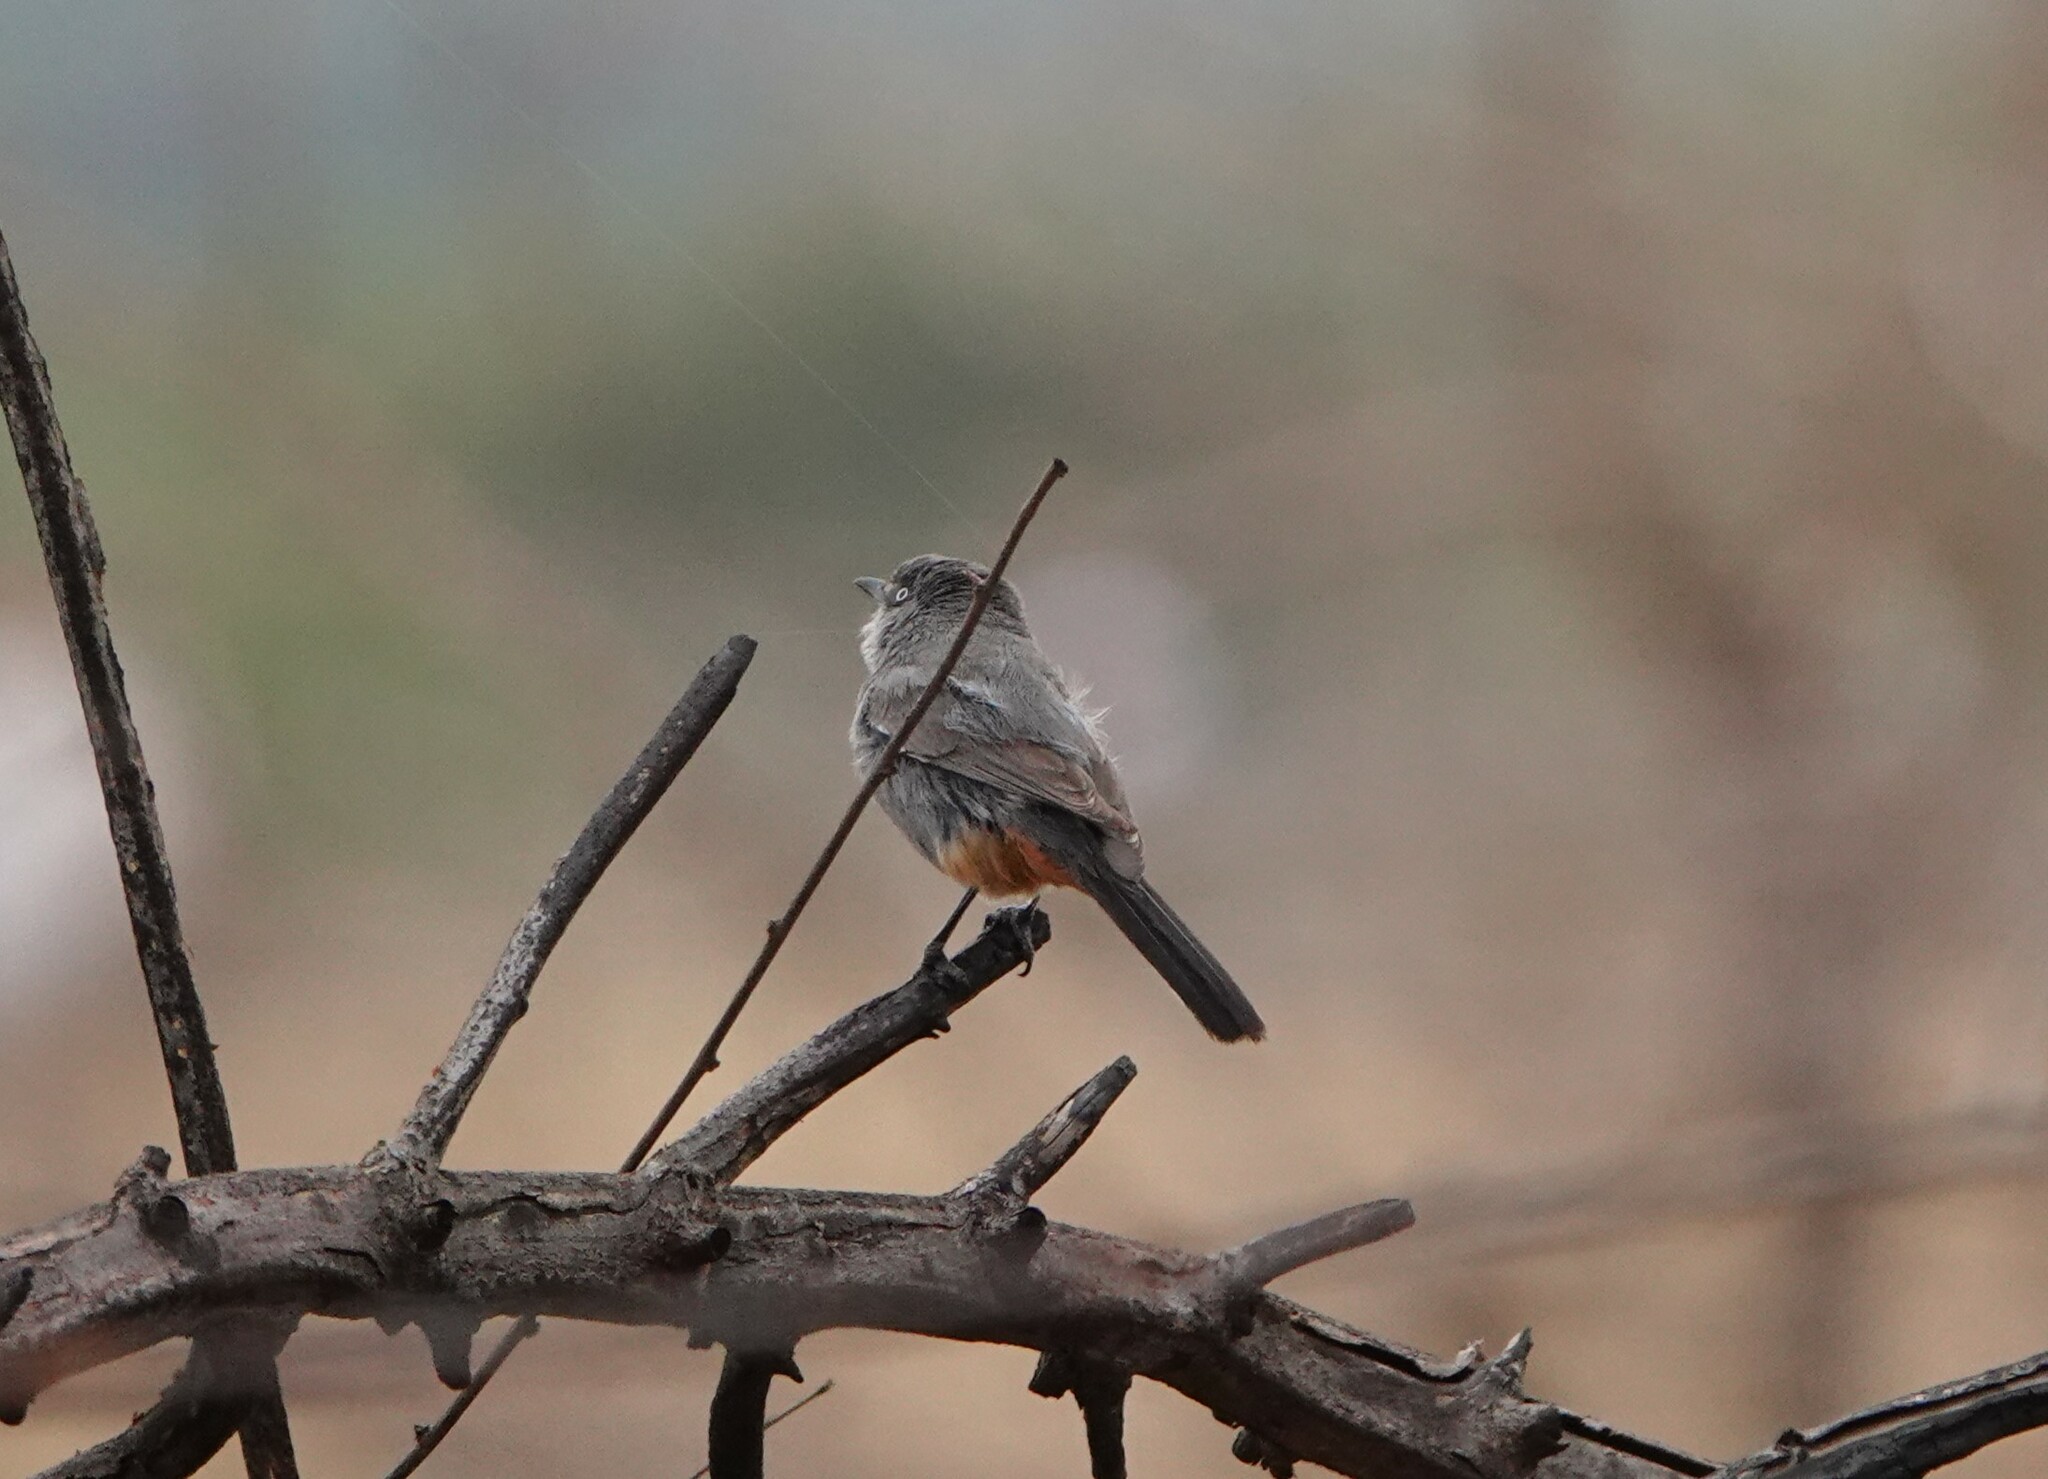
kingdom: Animalia
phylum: Chordata
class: Aves
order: Passeriformes
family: Sylviidae
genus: Curruca
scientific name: Curruca subcoerulea
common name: Chestnut-vented warbler
